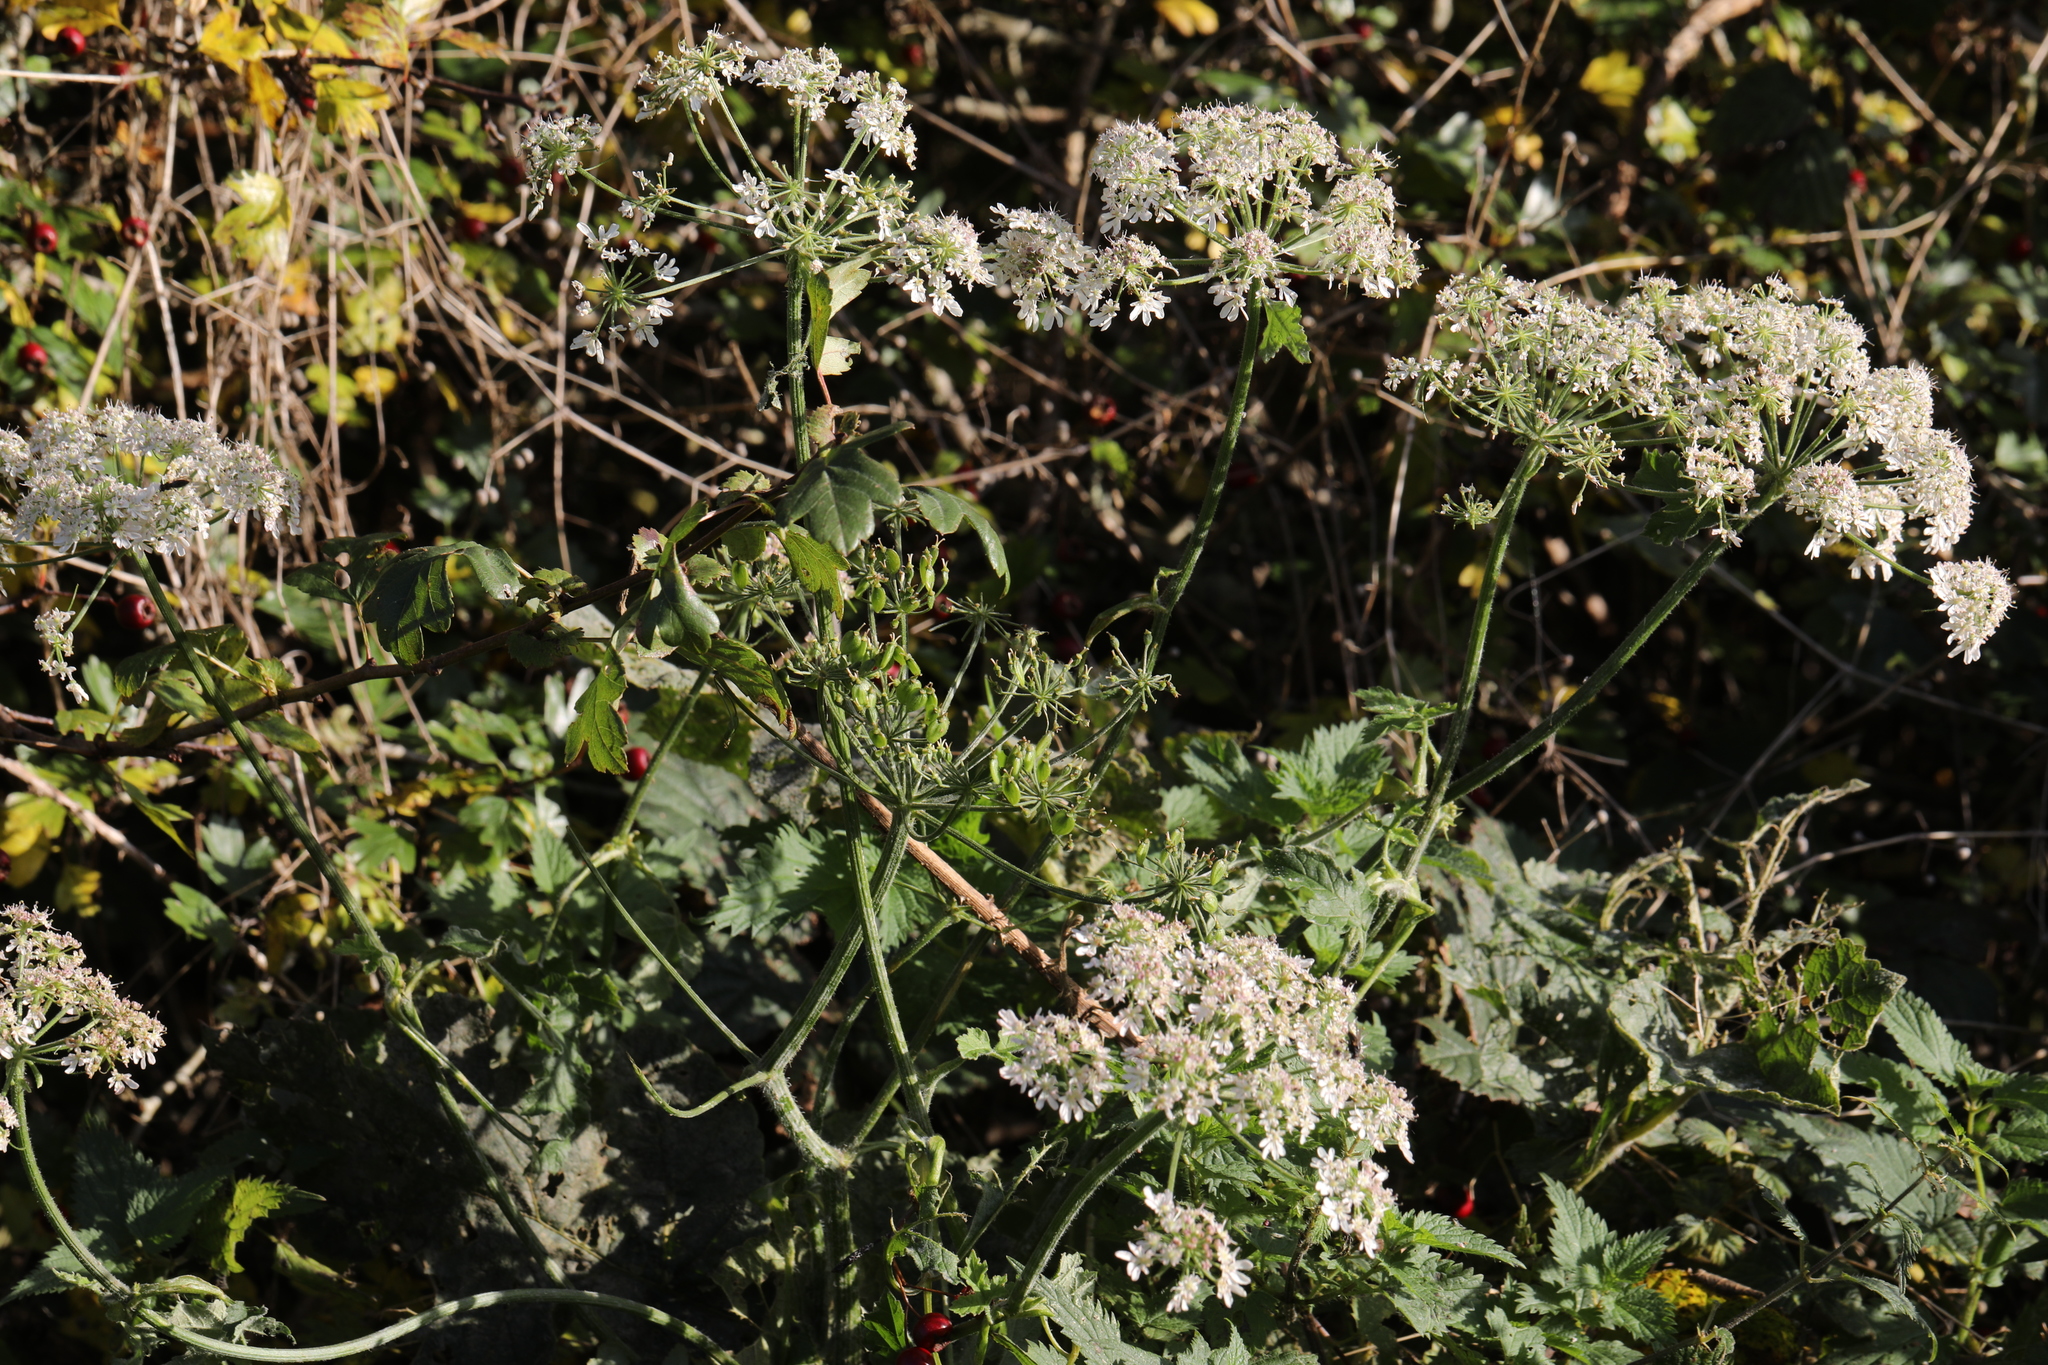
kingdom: Plantae
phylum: Tracheophyta
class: Magnoliopsida
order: Apiales
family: Apiaceae
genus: Heracleum
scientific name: Heracleum sphondylium
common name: Hogweed
